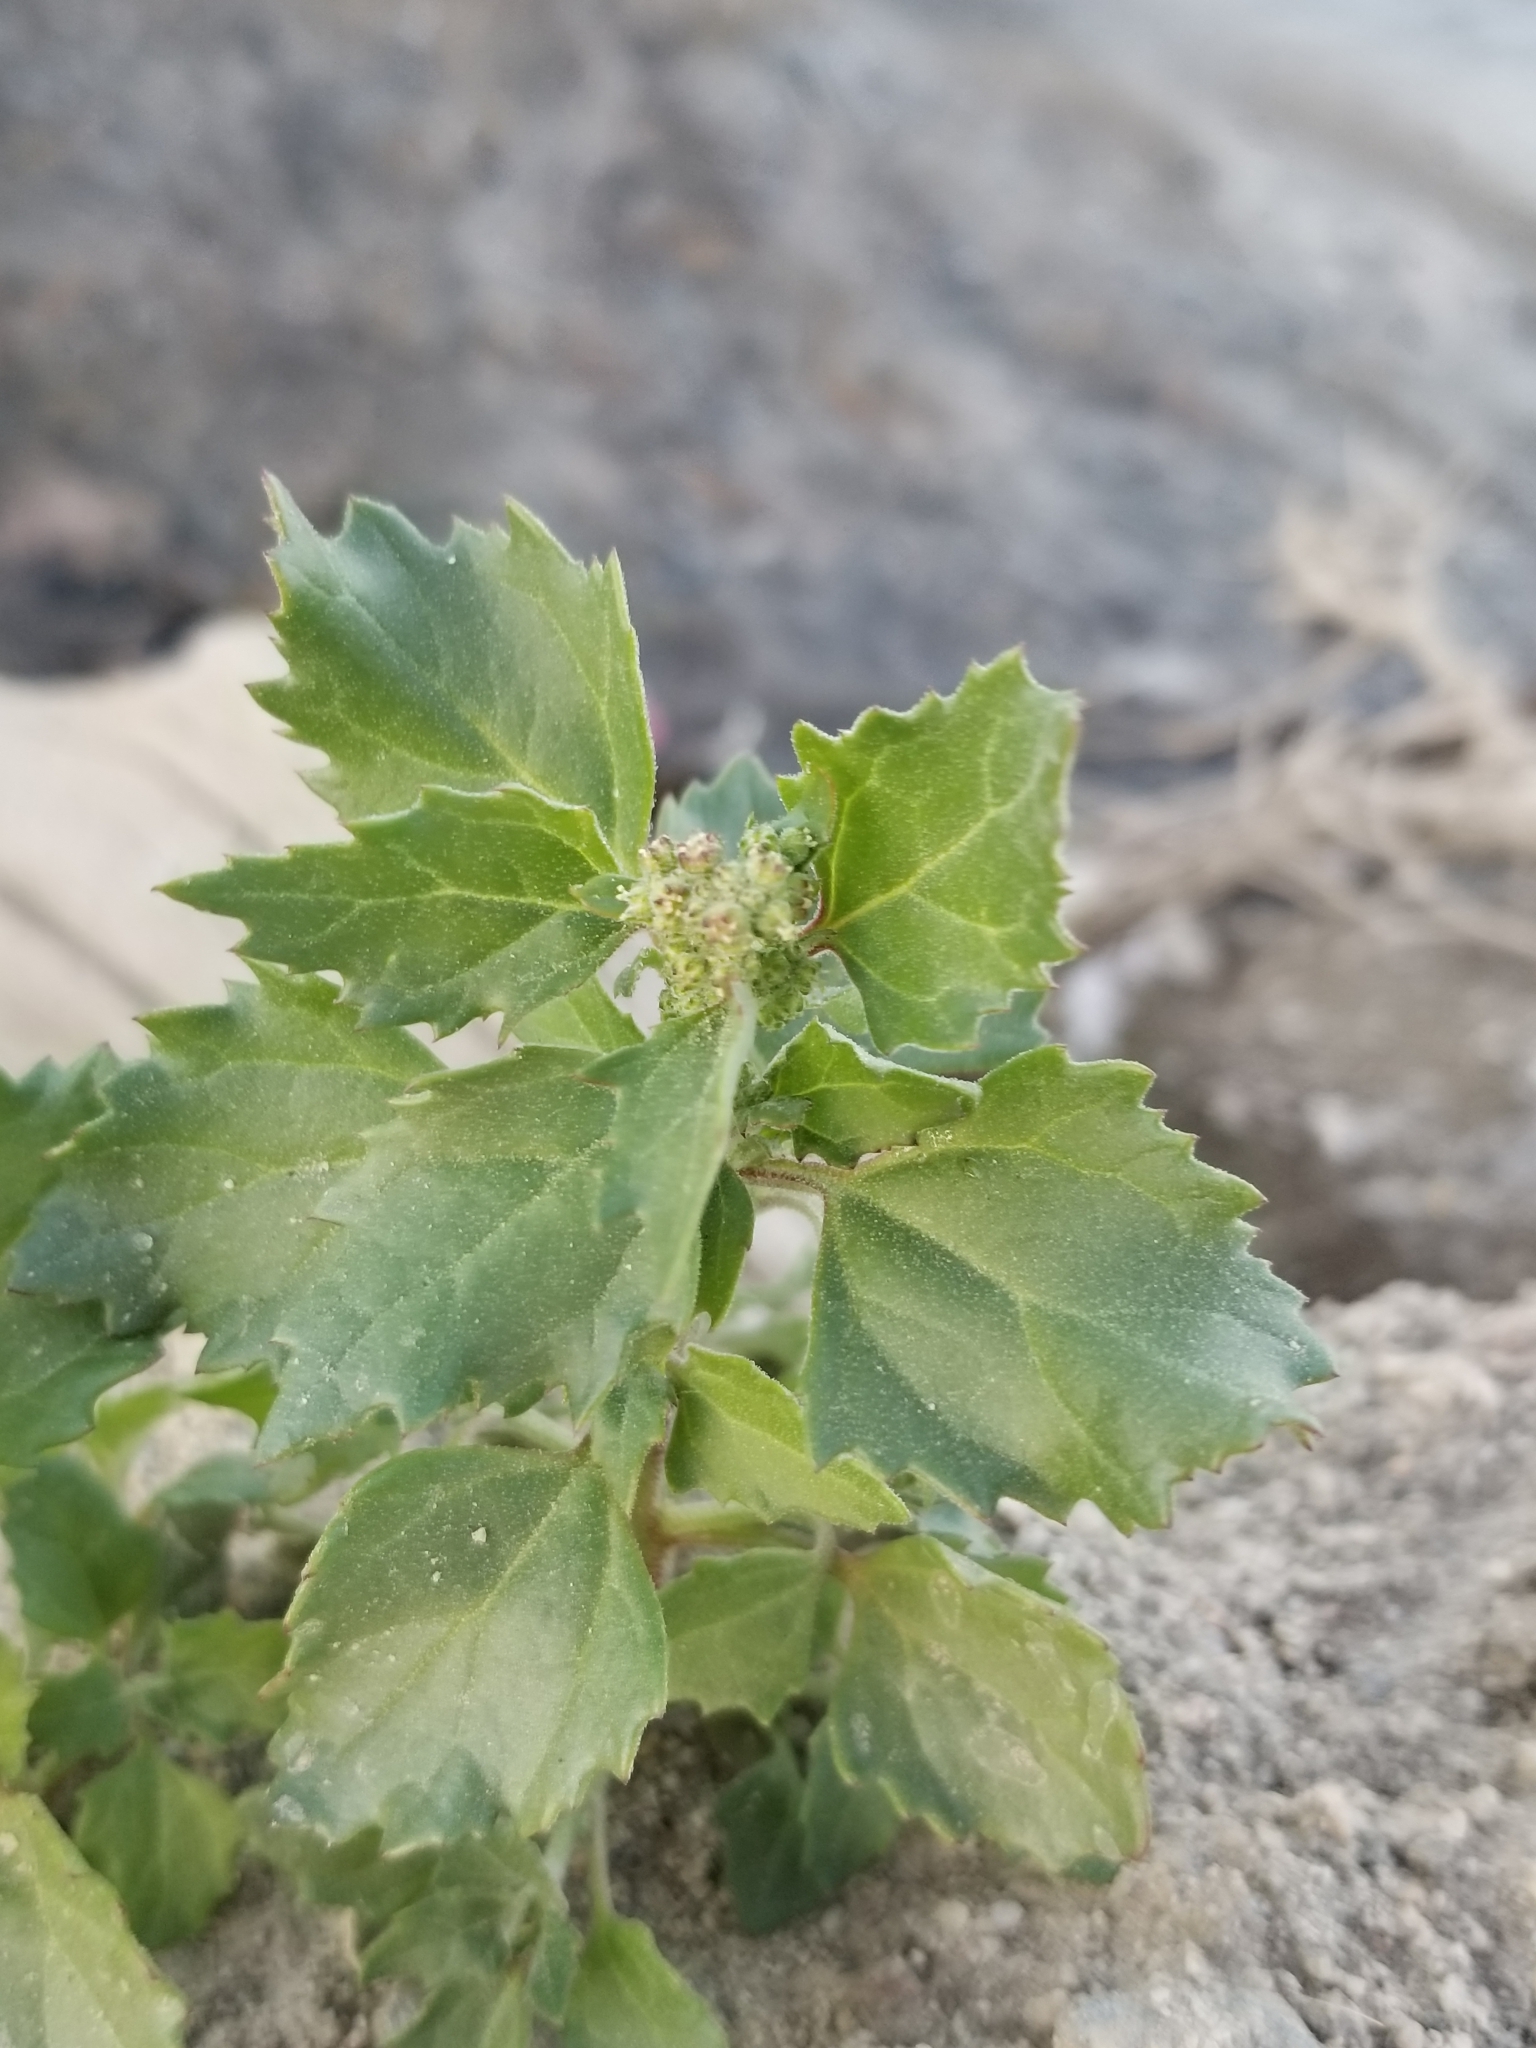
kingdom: Plantae
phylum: Tracheophyta
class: Magnoliopsida
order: Caryophyllales
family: Amaranthaceae
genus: Chenopodiastrum
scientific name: Chenopodiastrum murale
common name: Sowbane
